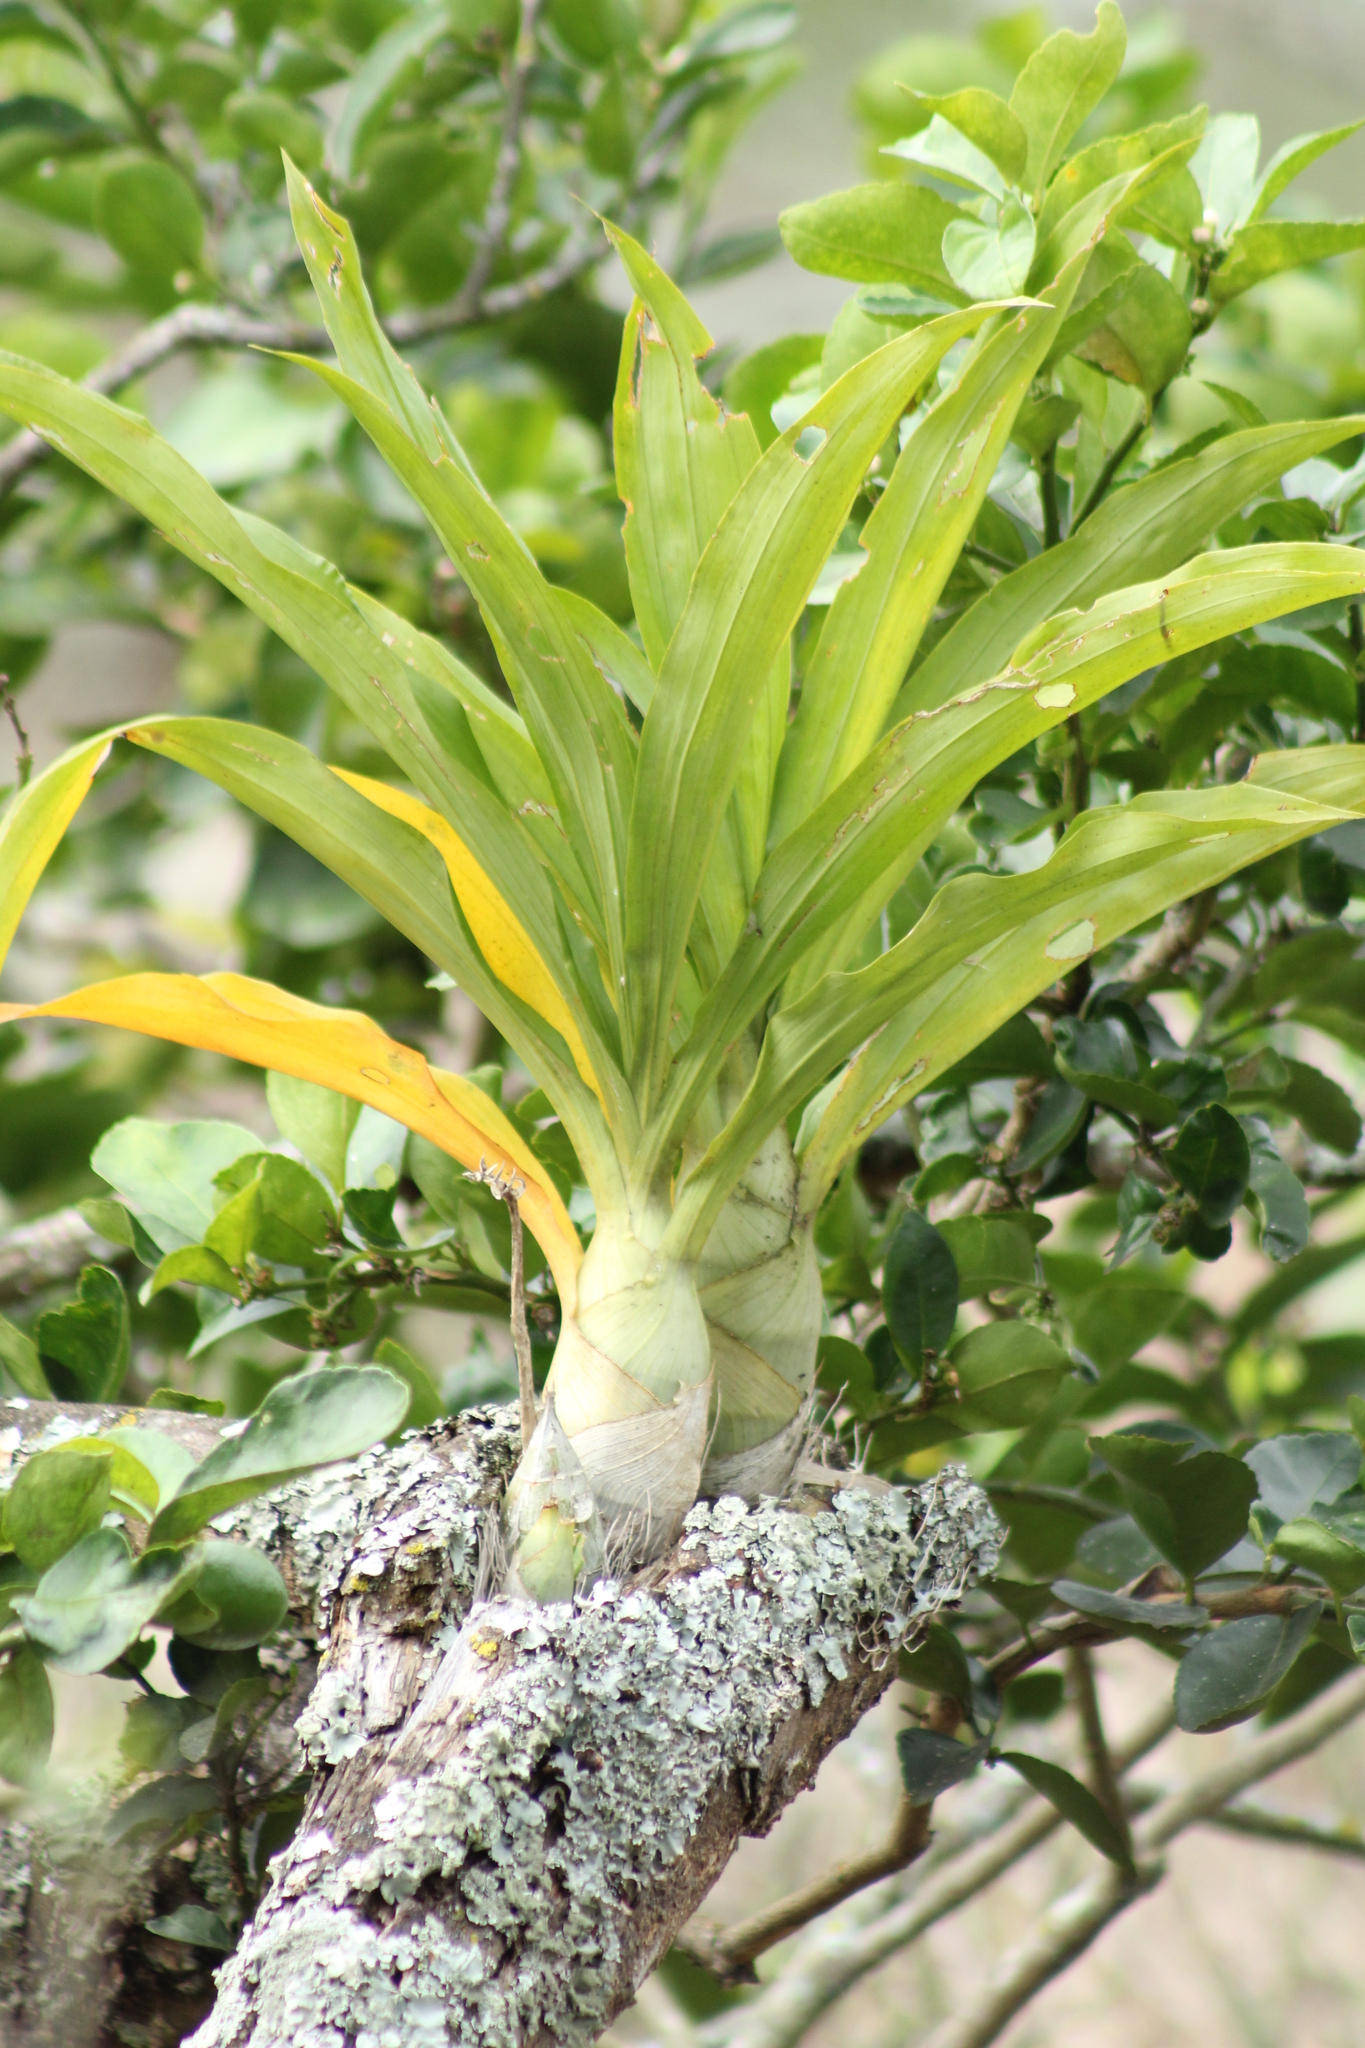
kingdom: Plantae
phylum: Tracheophyta
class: Liliopsida
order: Asparagales
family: Orchidaceae
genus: Catasetum
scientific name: Catasetum integerrimum
